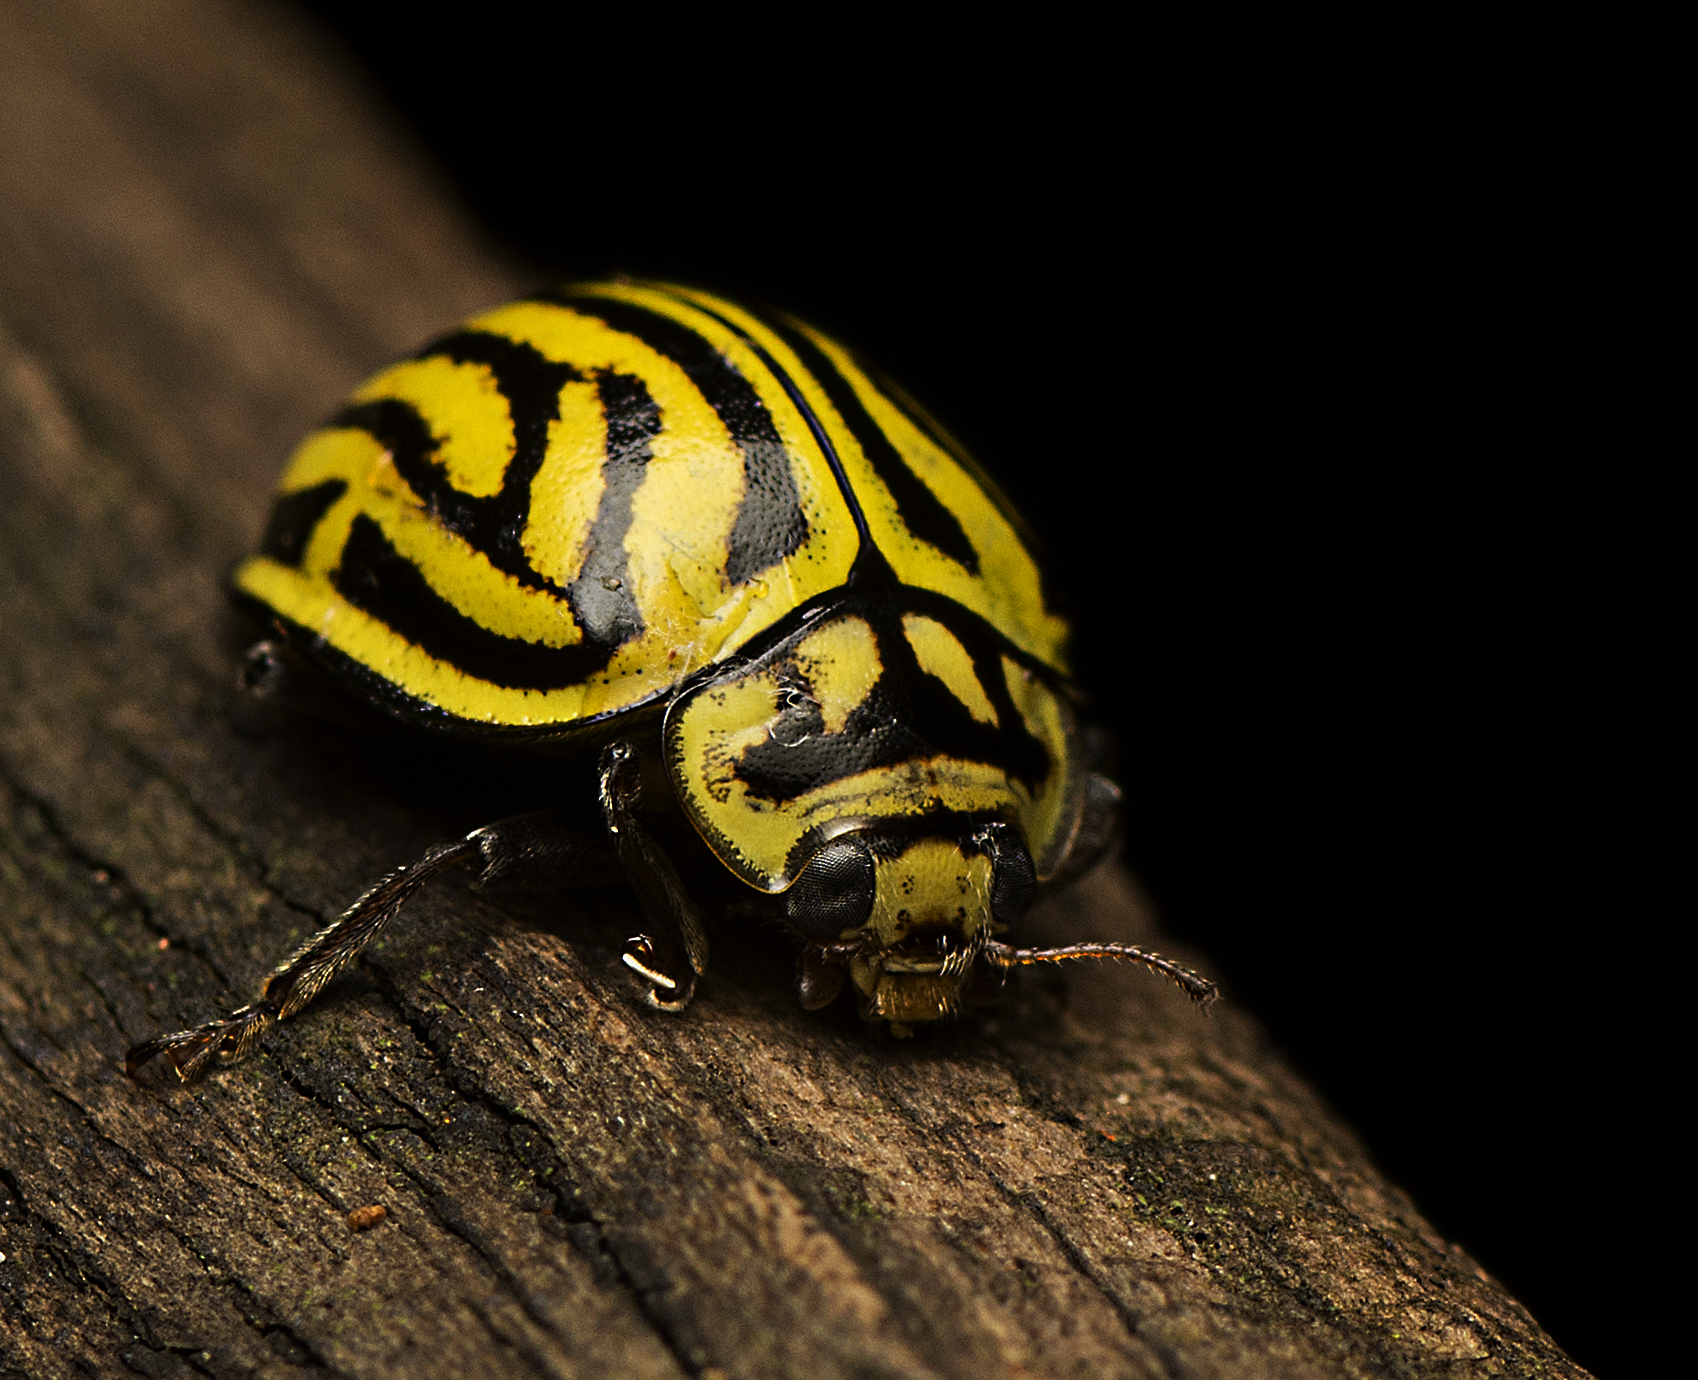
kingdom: Animalia
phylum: Arthropoda
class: Insecta
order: Coleoptera
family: Coccinellidae
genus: Archegleis
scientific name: Archegleis
